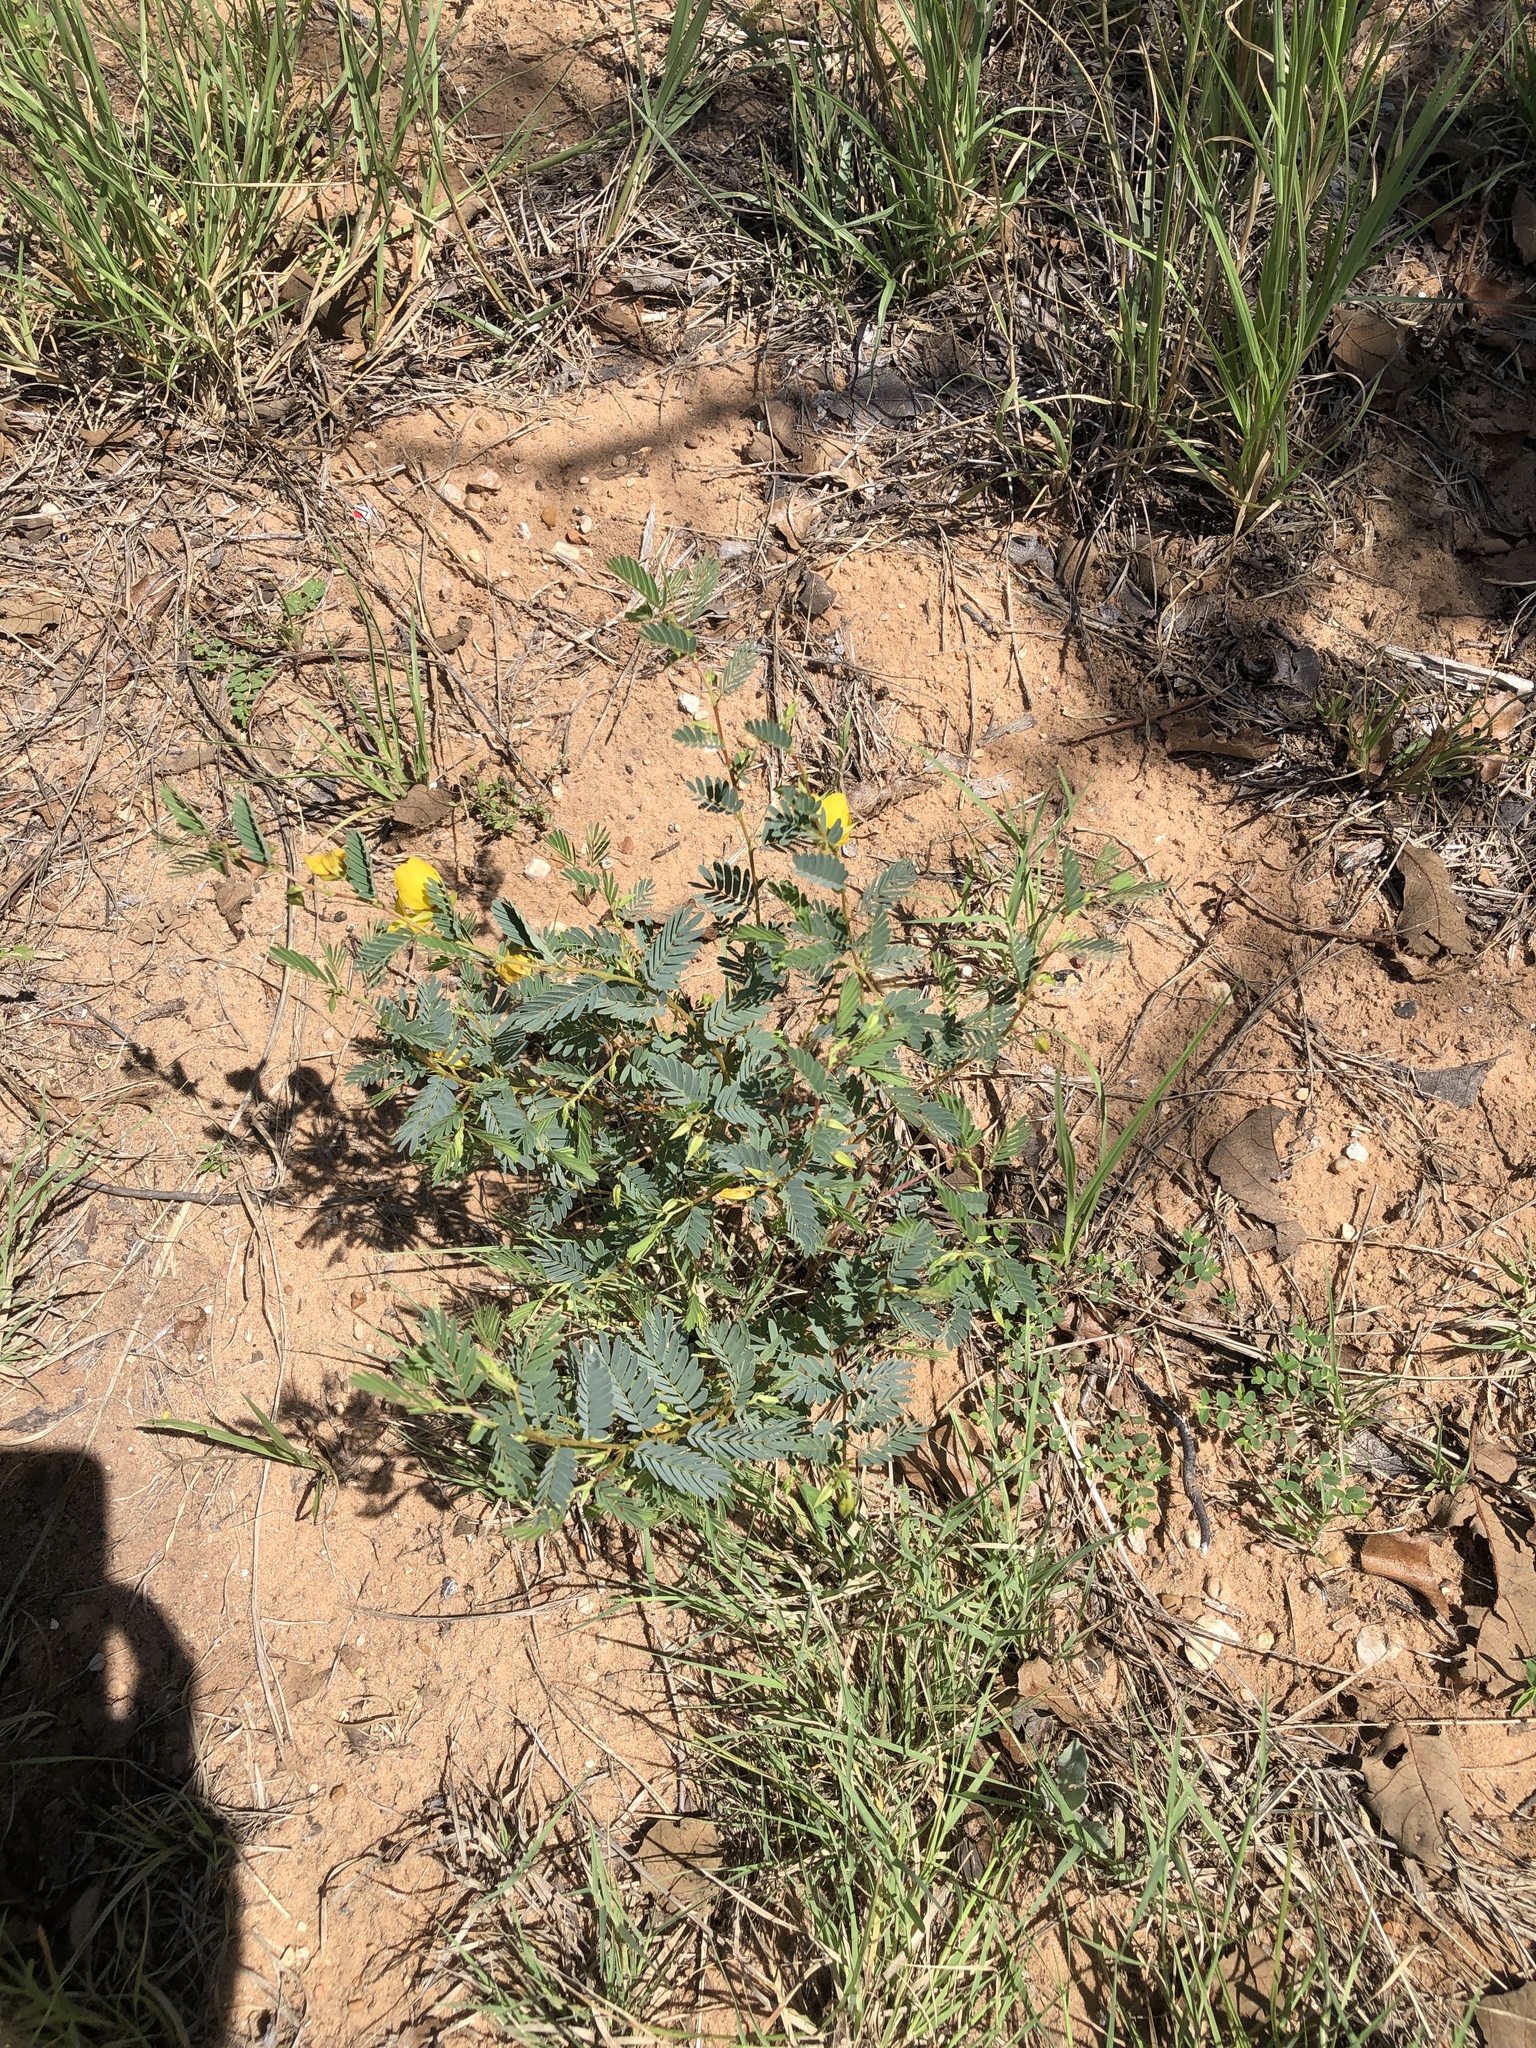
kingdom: Plantae
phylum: Tracheophyta
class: Magnoliopsida
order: Fabales
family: Fabaceae
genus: Chamaecrista
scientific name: Chamaecrista fasciculata
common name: Golden cassia
